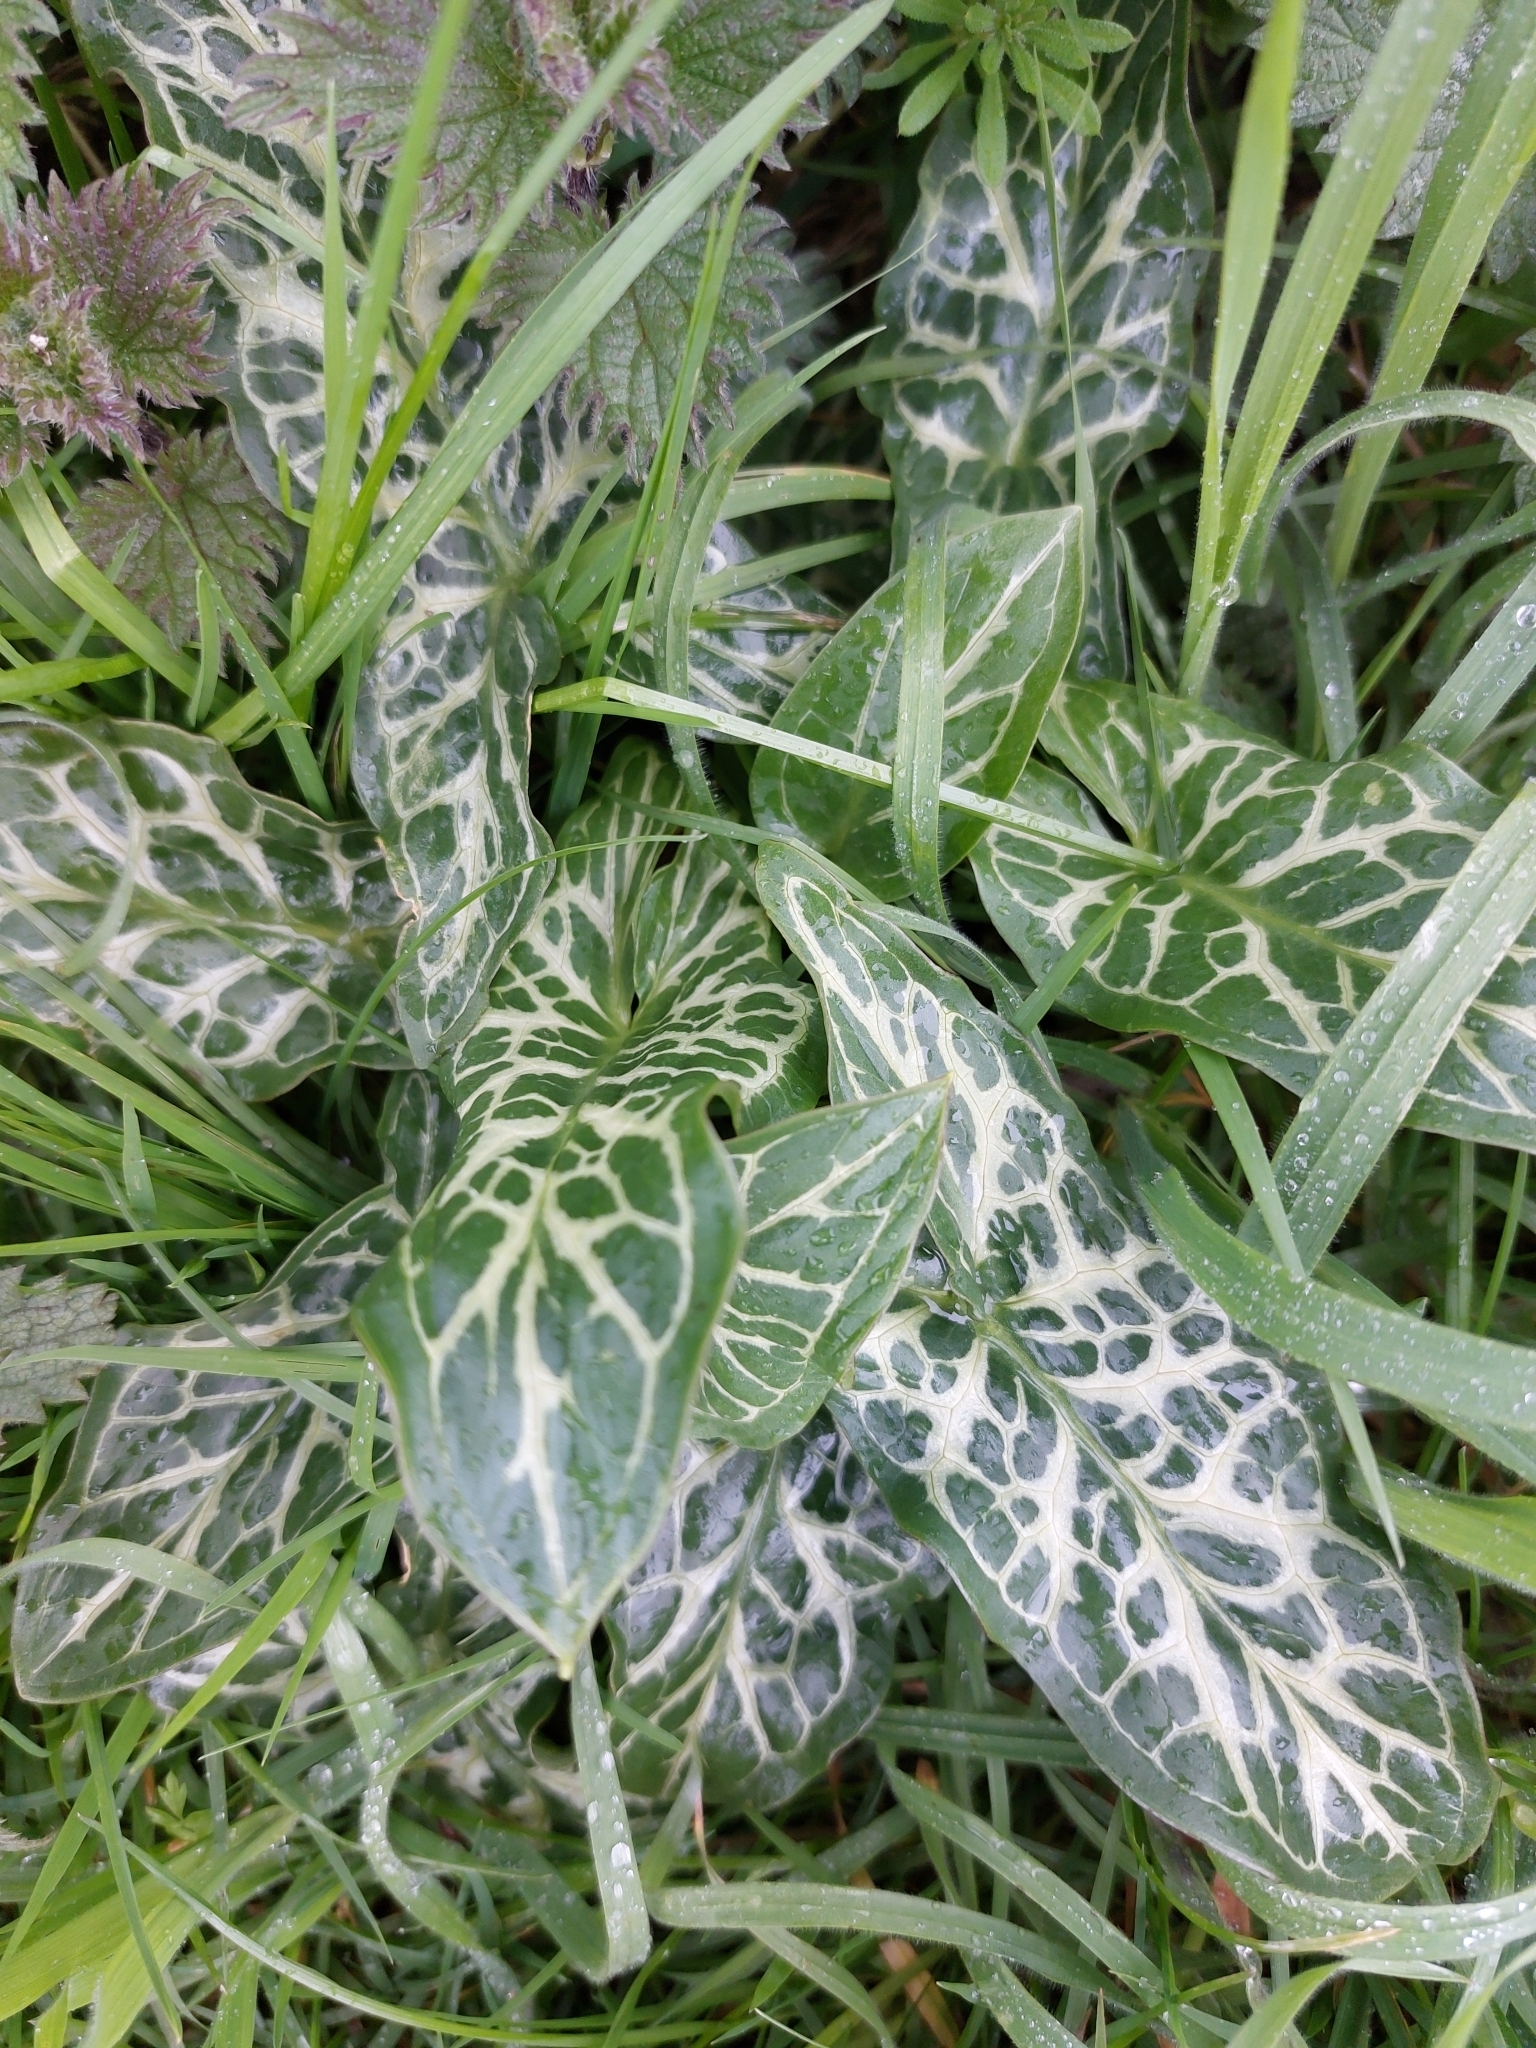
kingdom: Plantae
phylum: Tracheophyta
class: Liliopsida
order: Alismatales
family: Araceae
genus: Arum
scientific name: Arum italicum
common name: Italian lords-and-ladies
